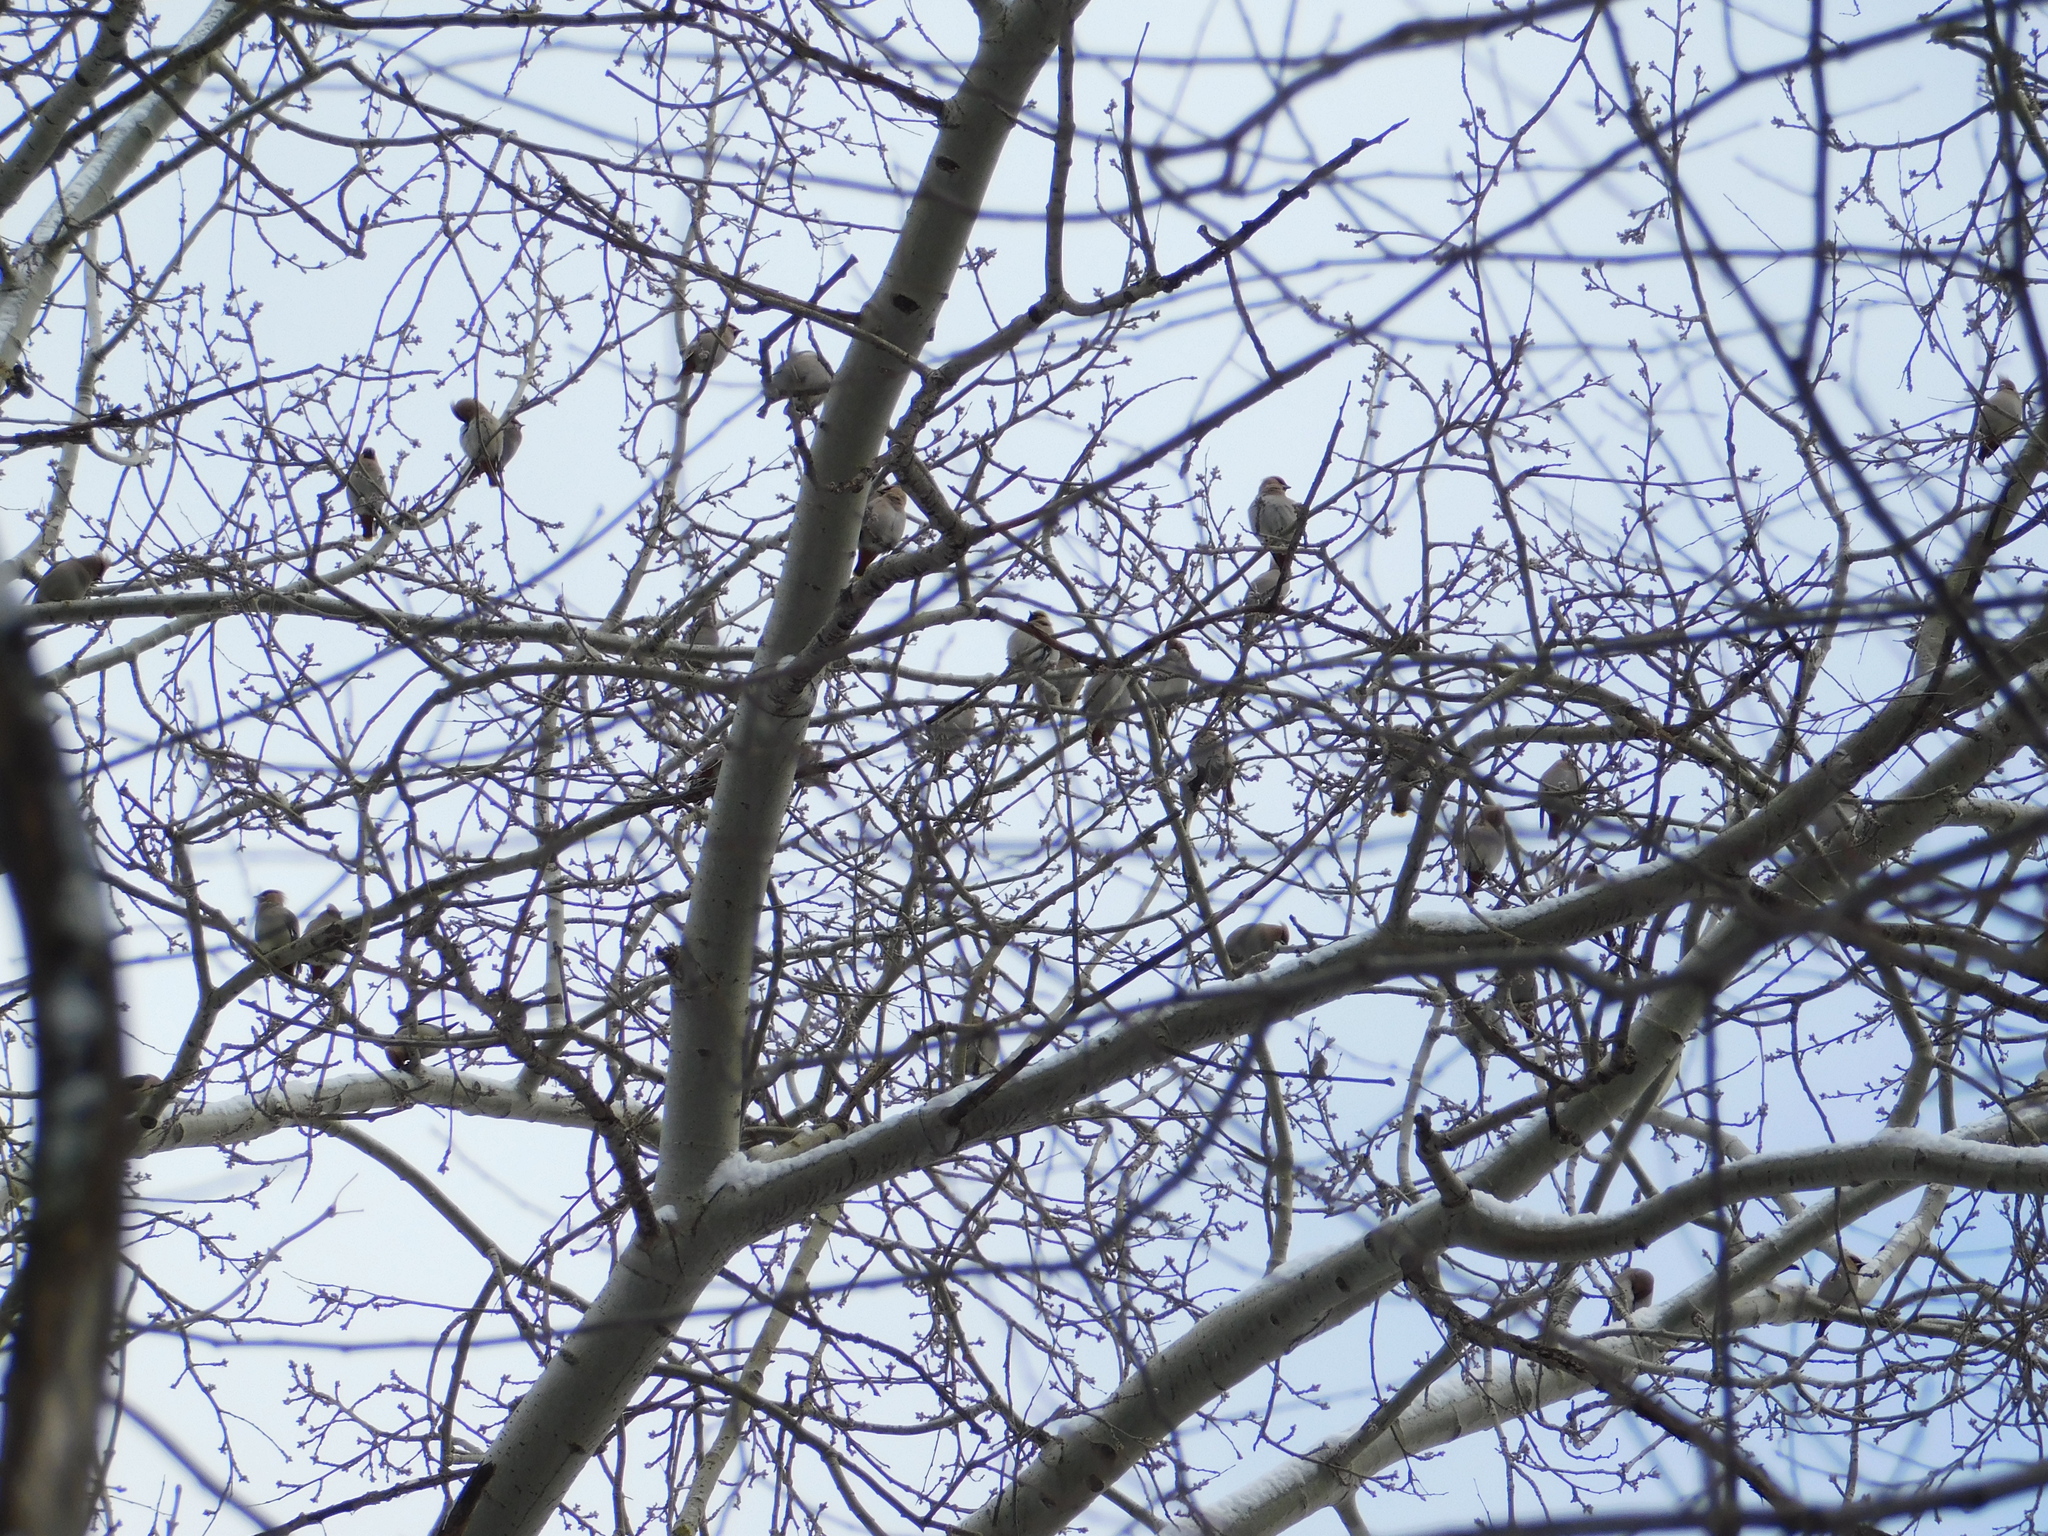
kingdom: Animalia
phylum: Chordata
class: Aves
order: Passeriformes
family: Bombycillidae
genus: Bombycilla
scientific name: Bombycilla garrulus
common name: Bohemian waxwing
